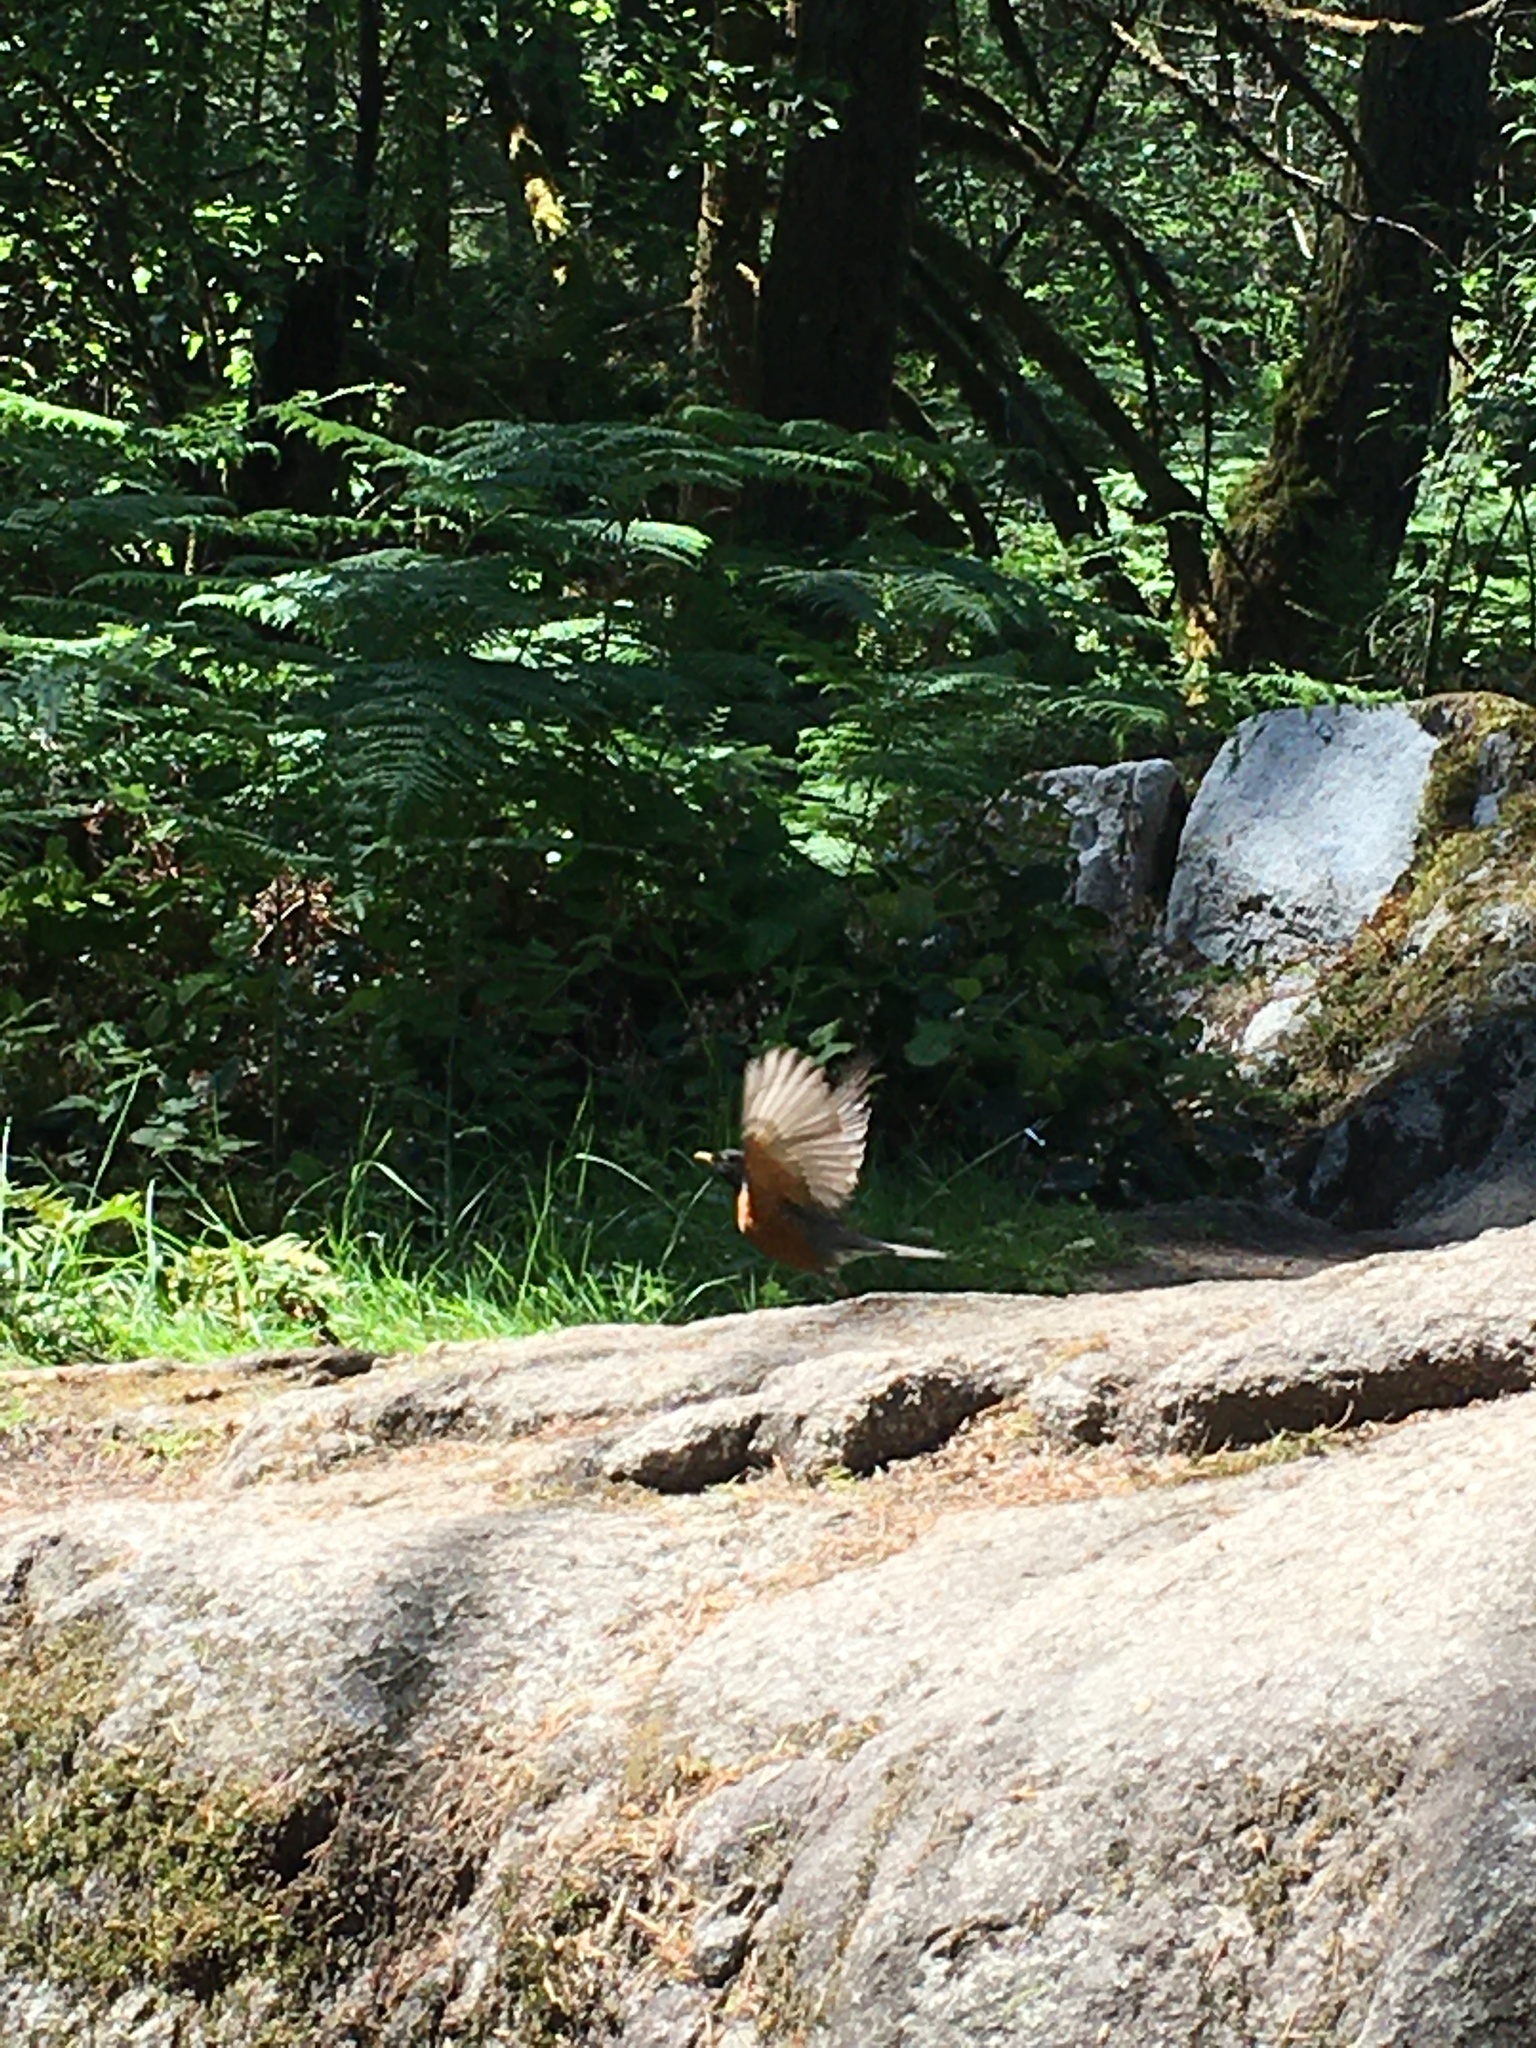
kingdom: Animalia
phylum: Chordata
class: Aves
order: Passeriformes
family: Turdidae
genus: Turdus
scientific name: Turdus migratorius
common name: American robin
